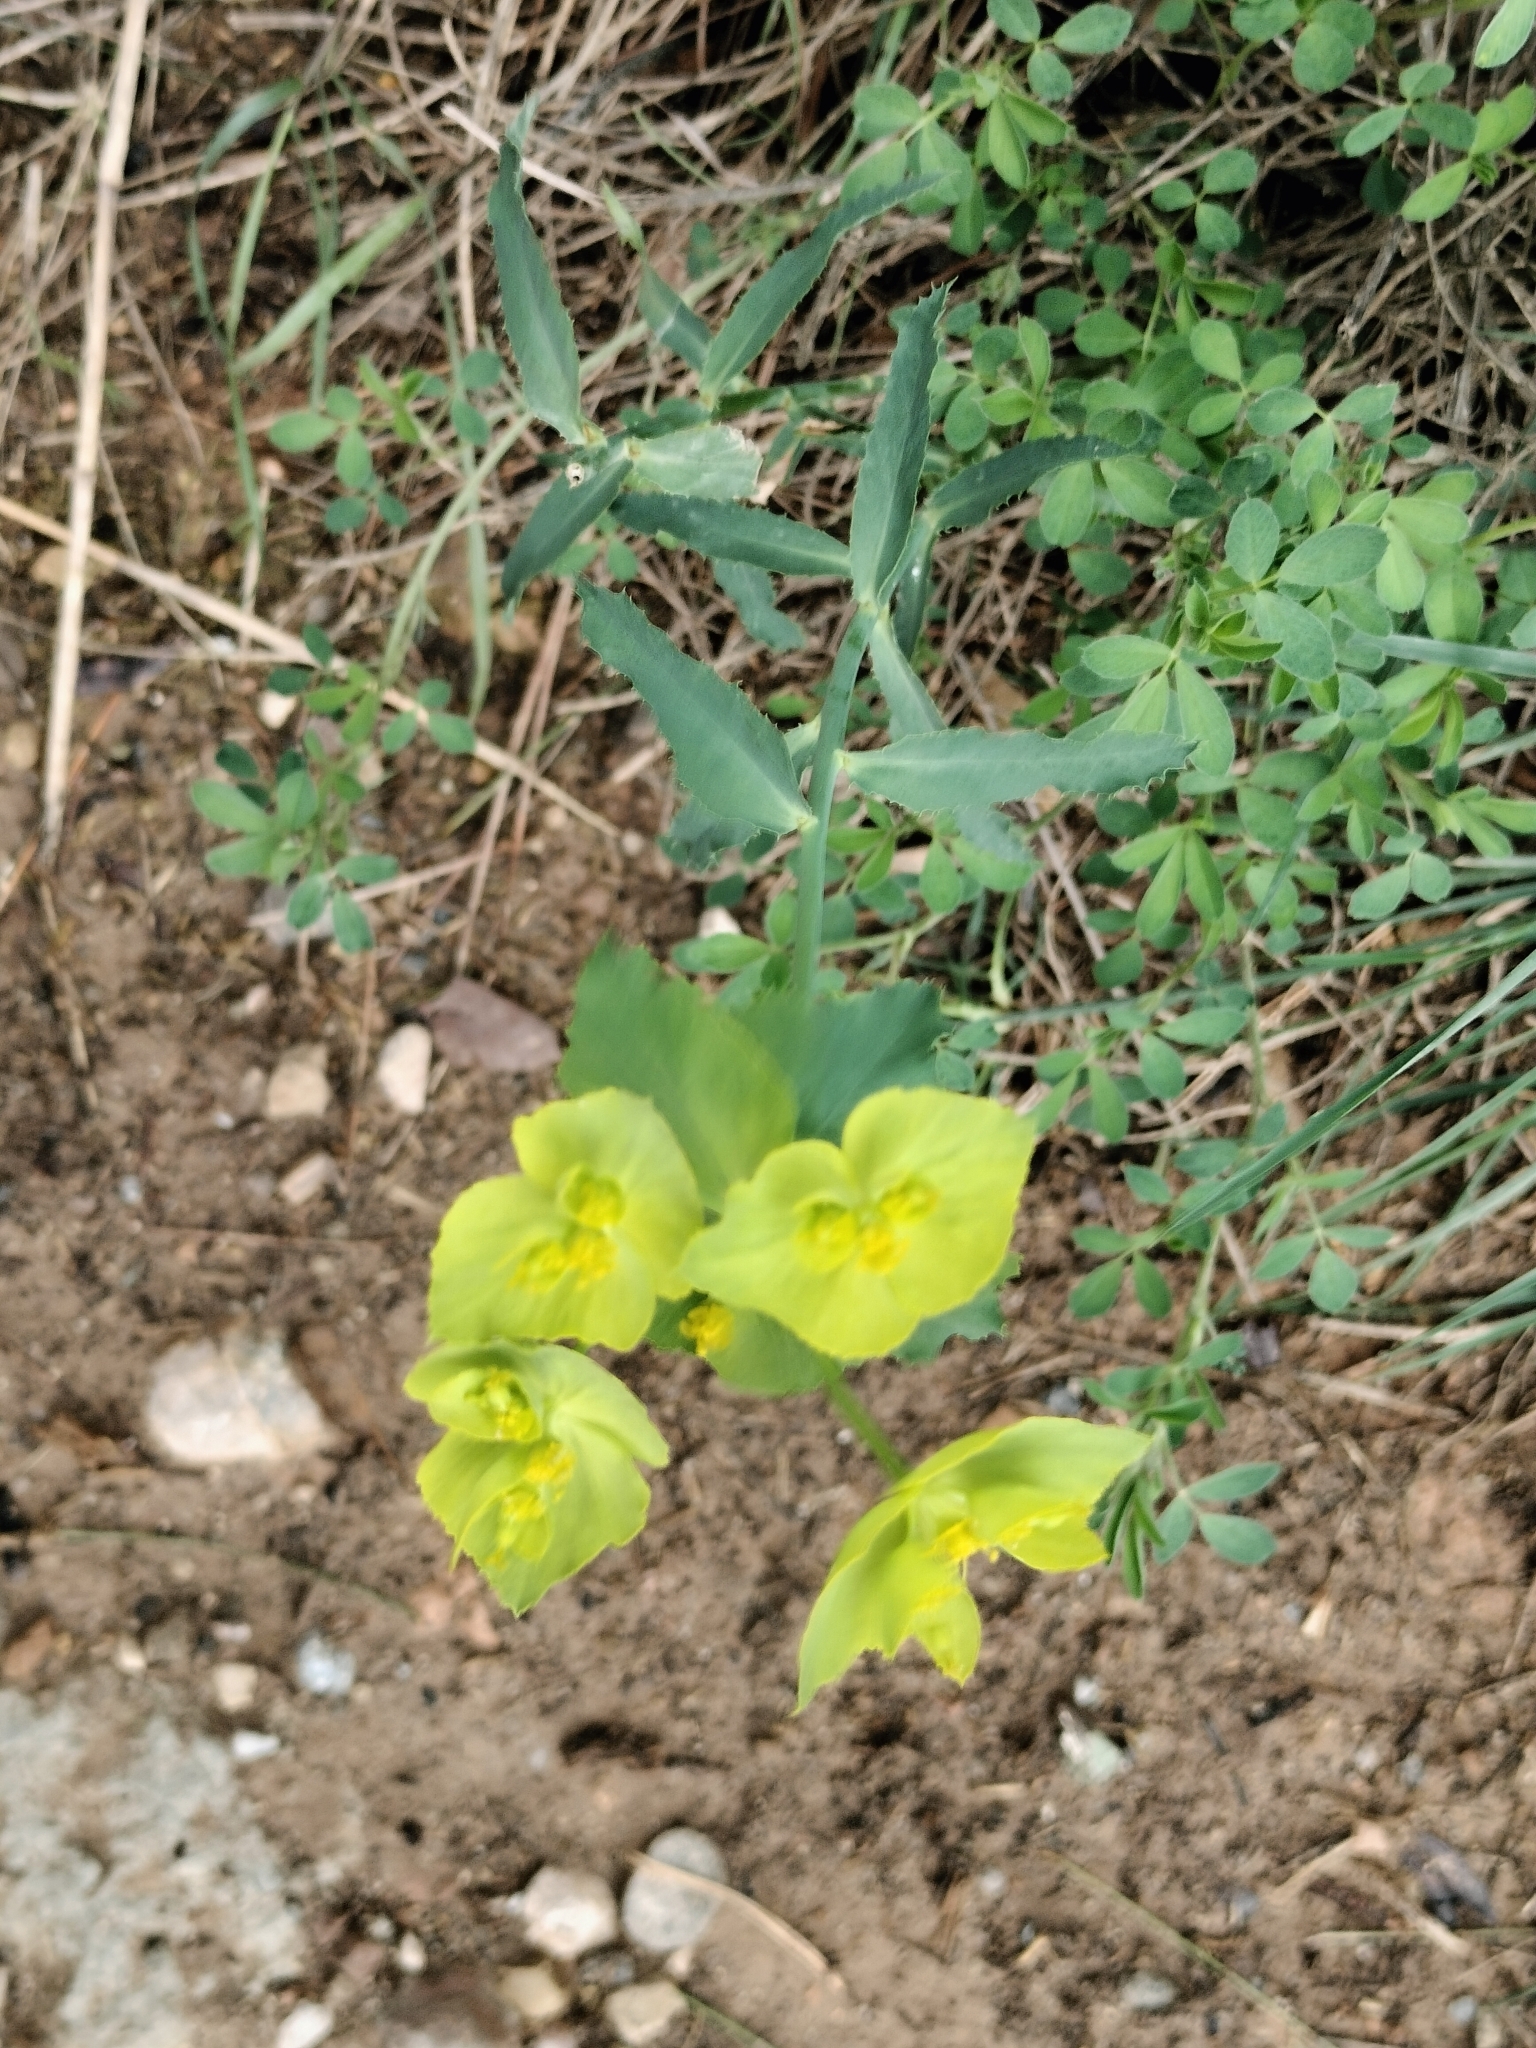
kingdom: Plantae
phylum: Tracheophyta
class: Magnoliopsida
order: Malpighiales
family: Euphorbiaceae
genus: Euphorbia
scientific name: Euphorbia serrata
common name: Serrate spurge
